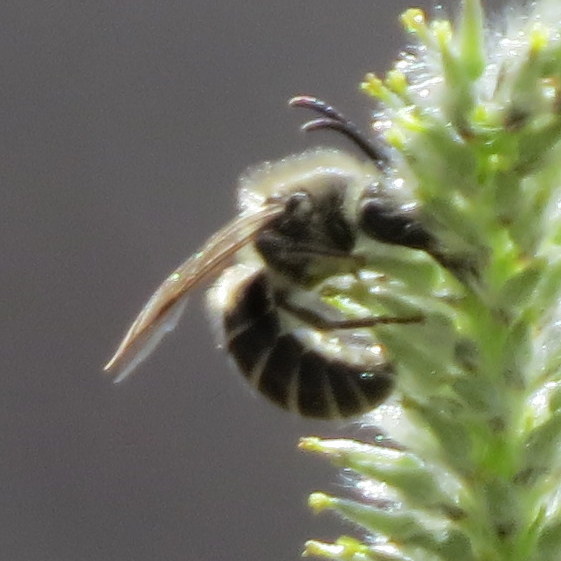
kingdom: Animalia
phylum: Arthropoda
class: Insecta
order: Hymenoptera
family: Colletidae
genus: Colletes
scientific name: Colletes inaequalis
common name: Unequal cellophane bee
